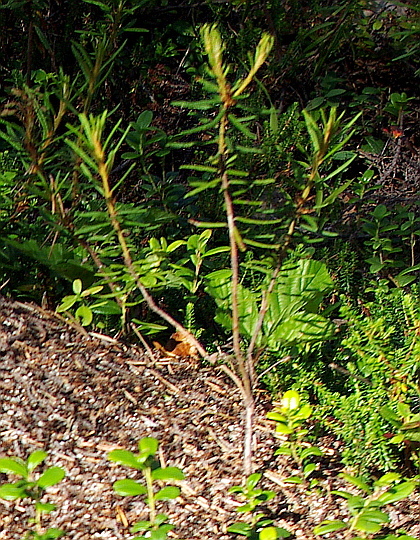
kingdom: Plantae
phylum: Tracheophyta
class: Magnoliopsida
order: Ericales
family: Ericaceae
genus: Rhododendron
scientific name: Rhododendron tomentosum
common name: Marsh labrador tea
